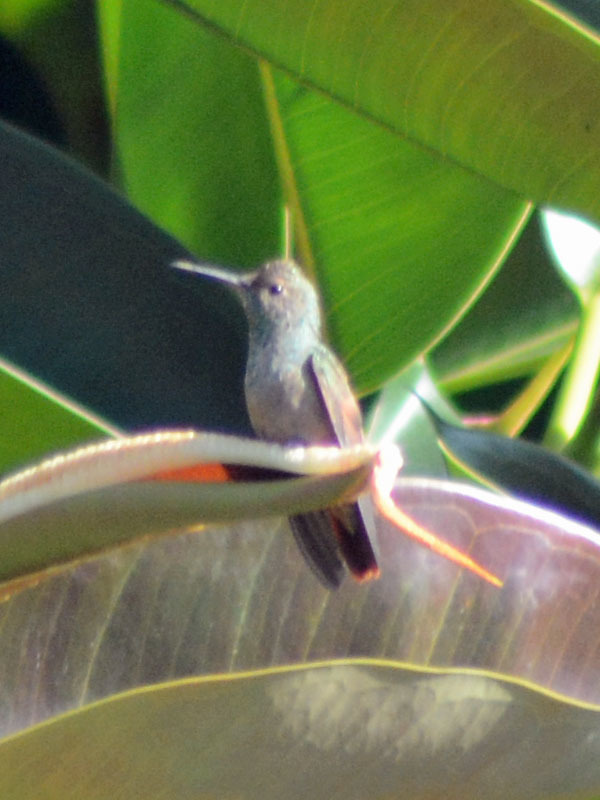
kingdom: Animalia
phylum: Chordata
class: Aves
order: Apodiformes
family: Trochilidae
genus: Saucerottia
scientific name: Saucerottia beryllina
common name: Berylline hummingbird
